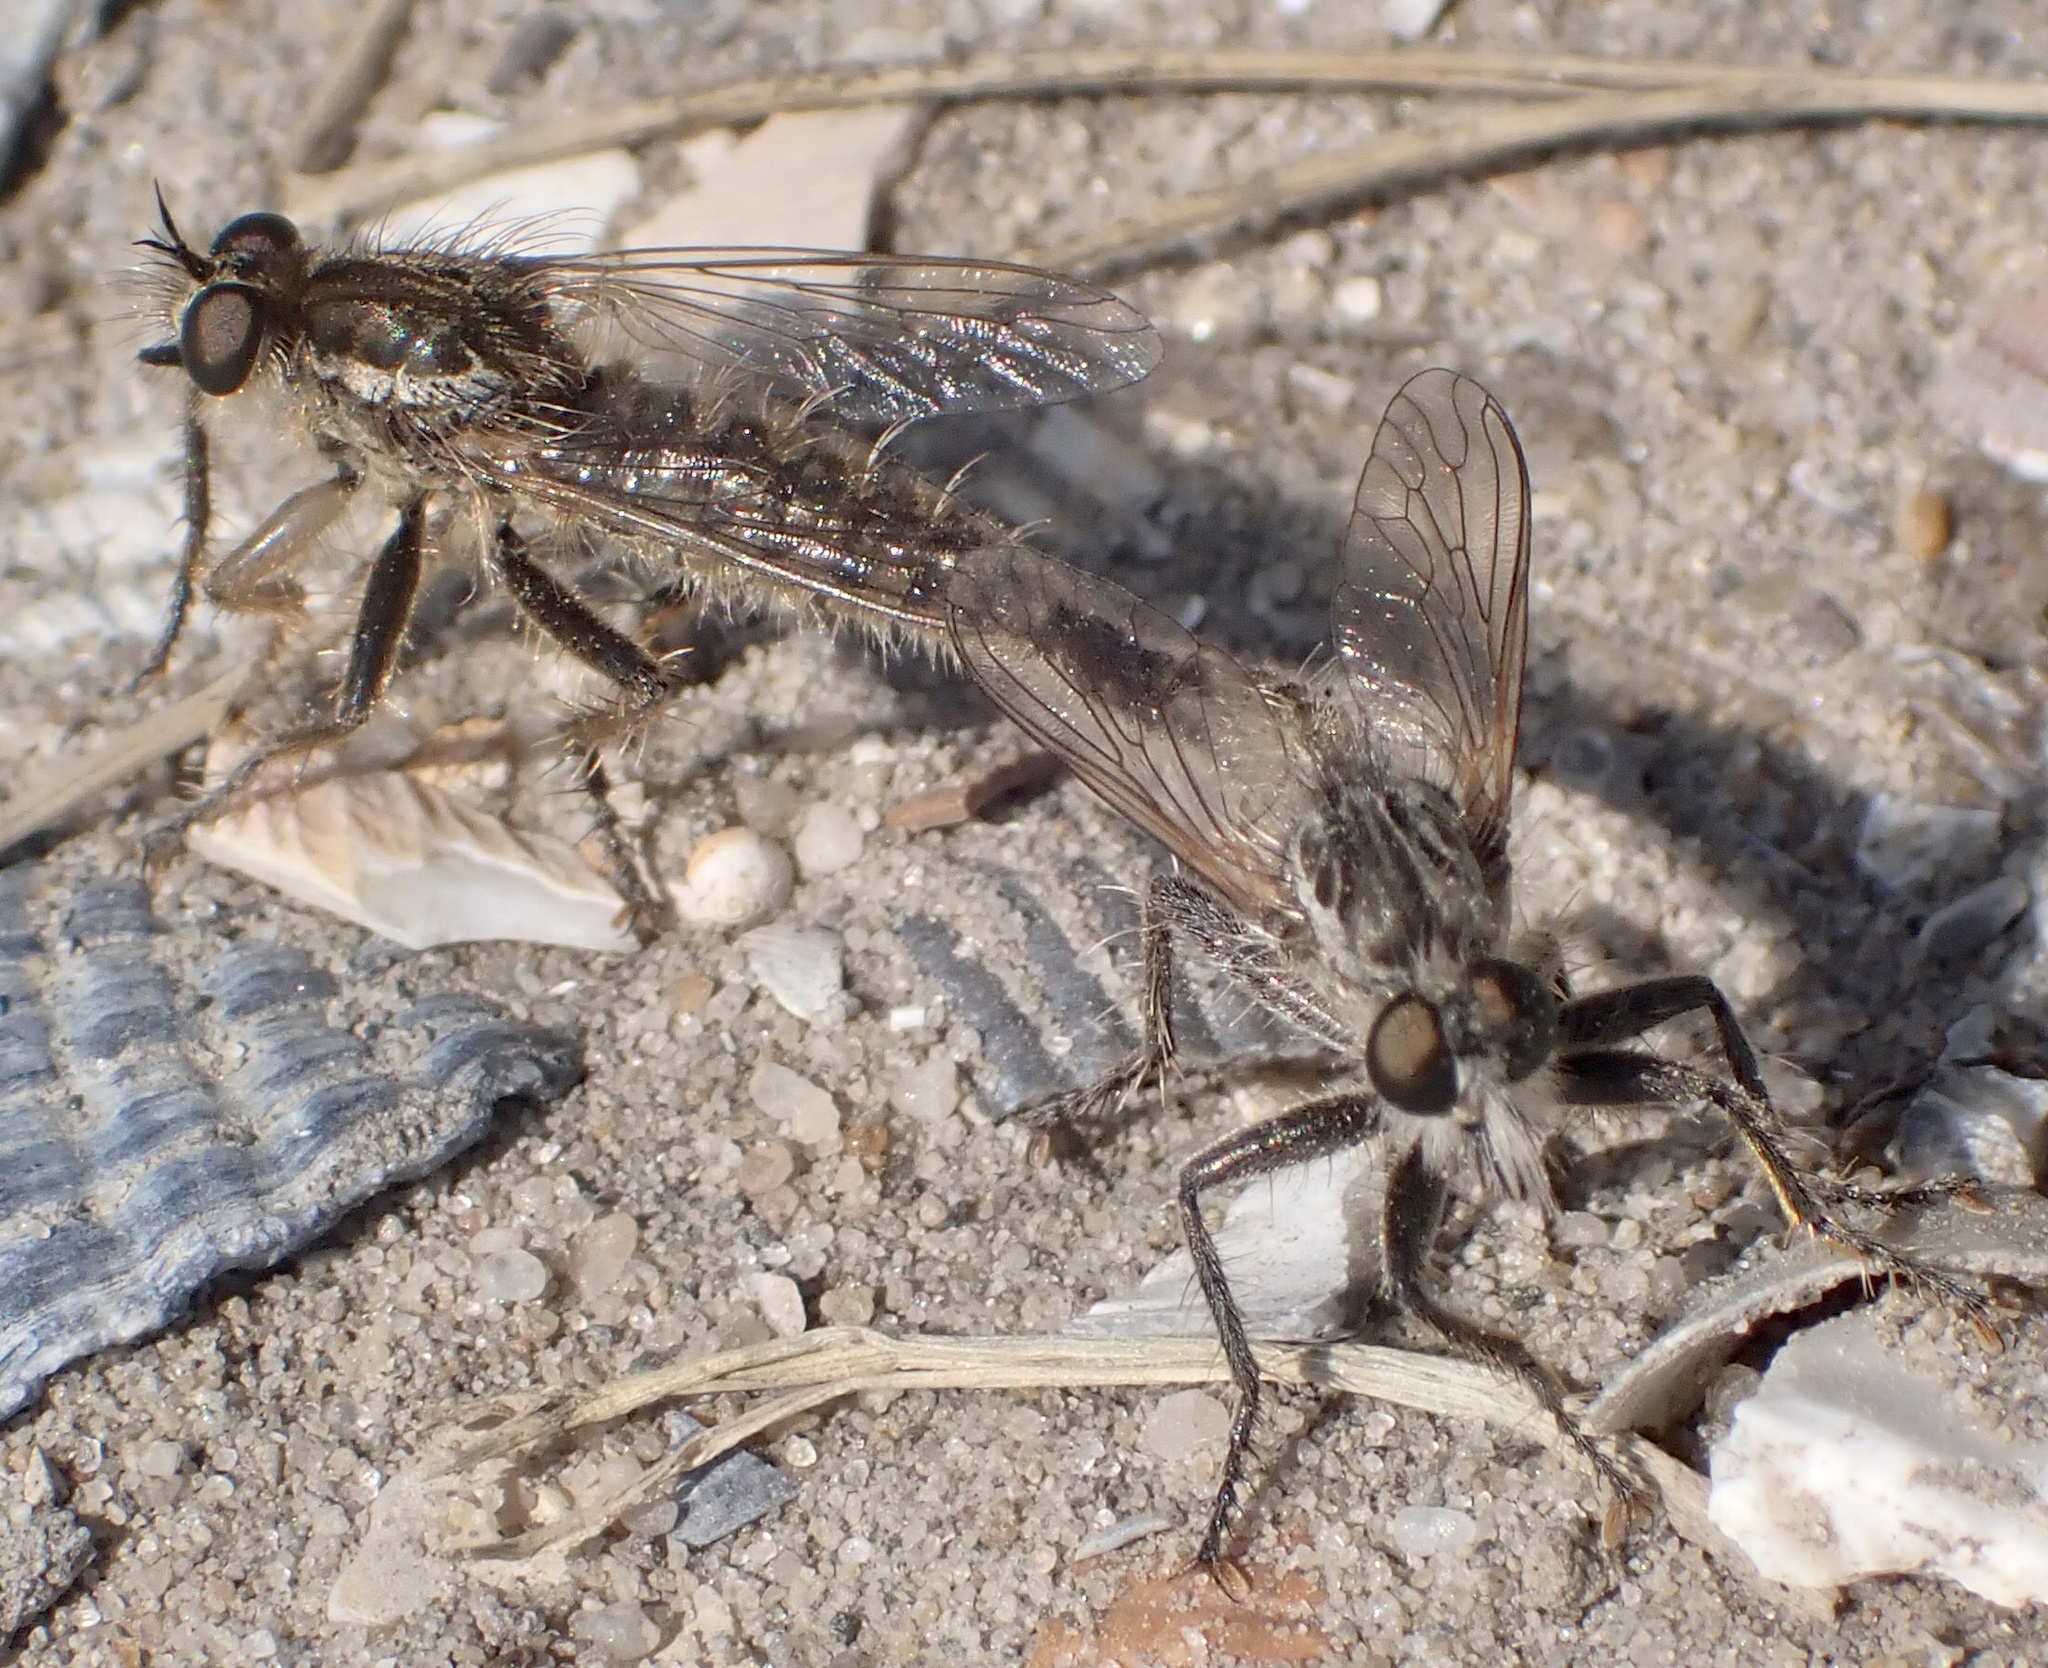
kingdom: Animalia
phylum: Arthropoda
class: Insecta
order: Diptera
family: Asilidae
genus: Dysmachus
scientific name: Dysmachus trigonus
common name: Fan-bristled robberfly
